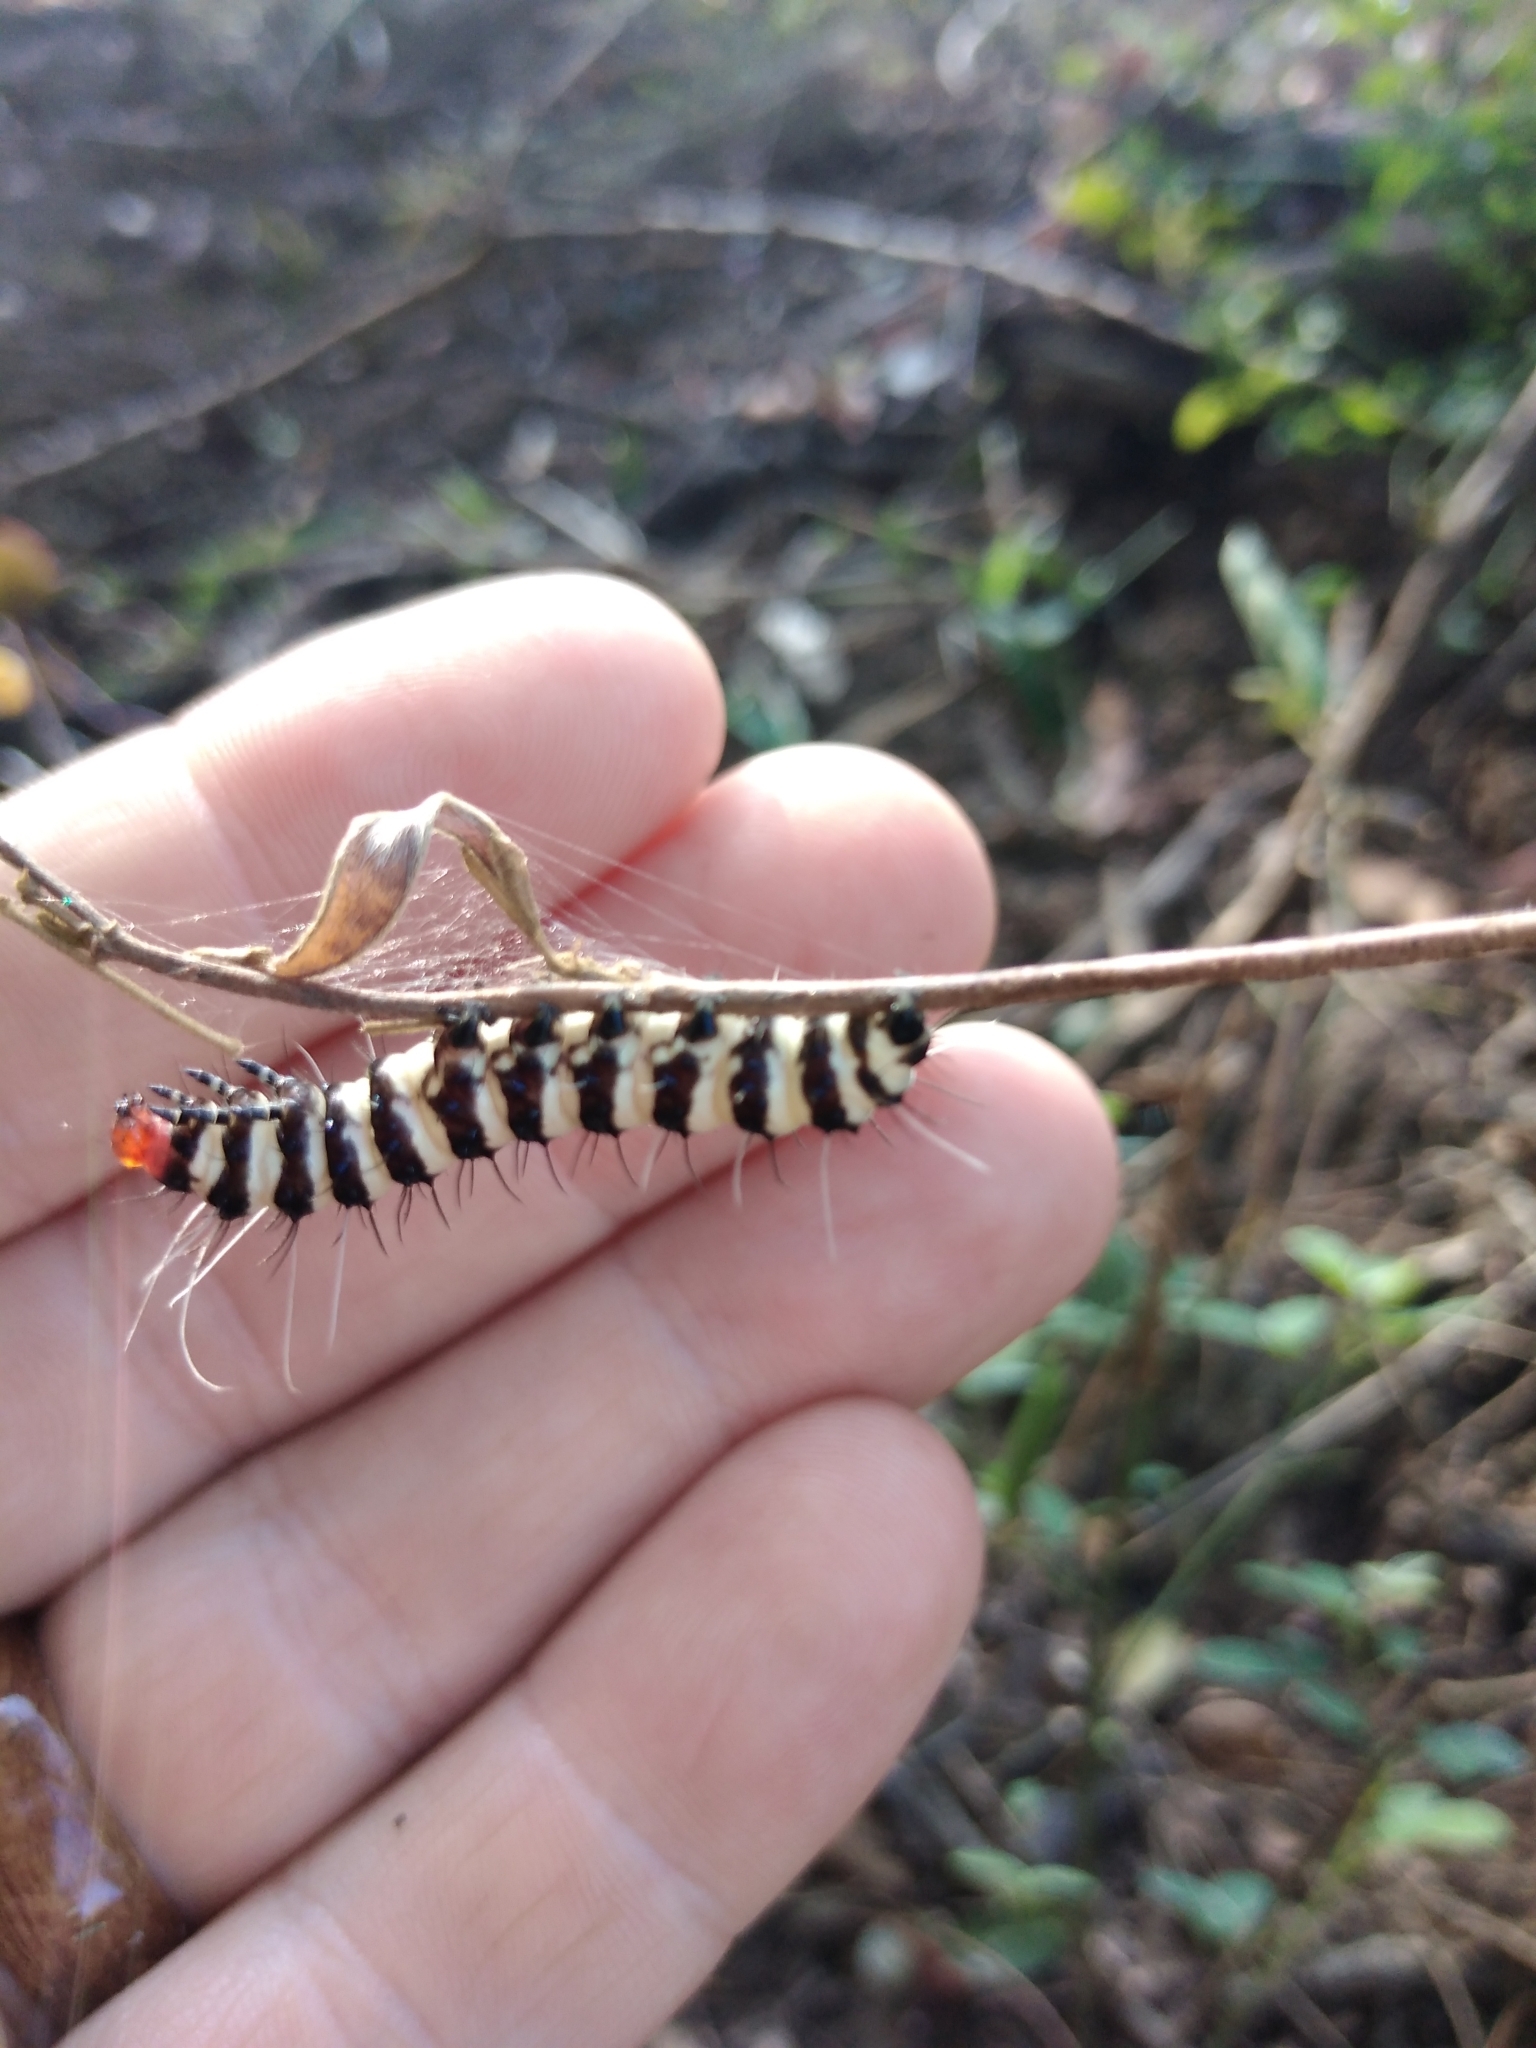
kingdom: Animalia
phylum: Arthropoda
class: Insecta
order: Lepidoptera
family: Erebidae
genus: Amphicallia
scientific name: Amphicallia bellatrix
